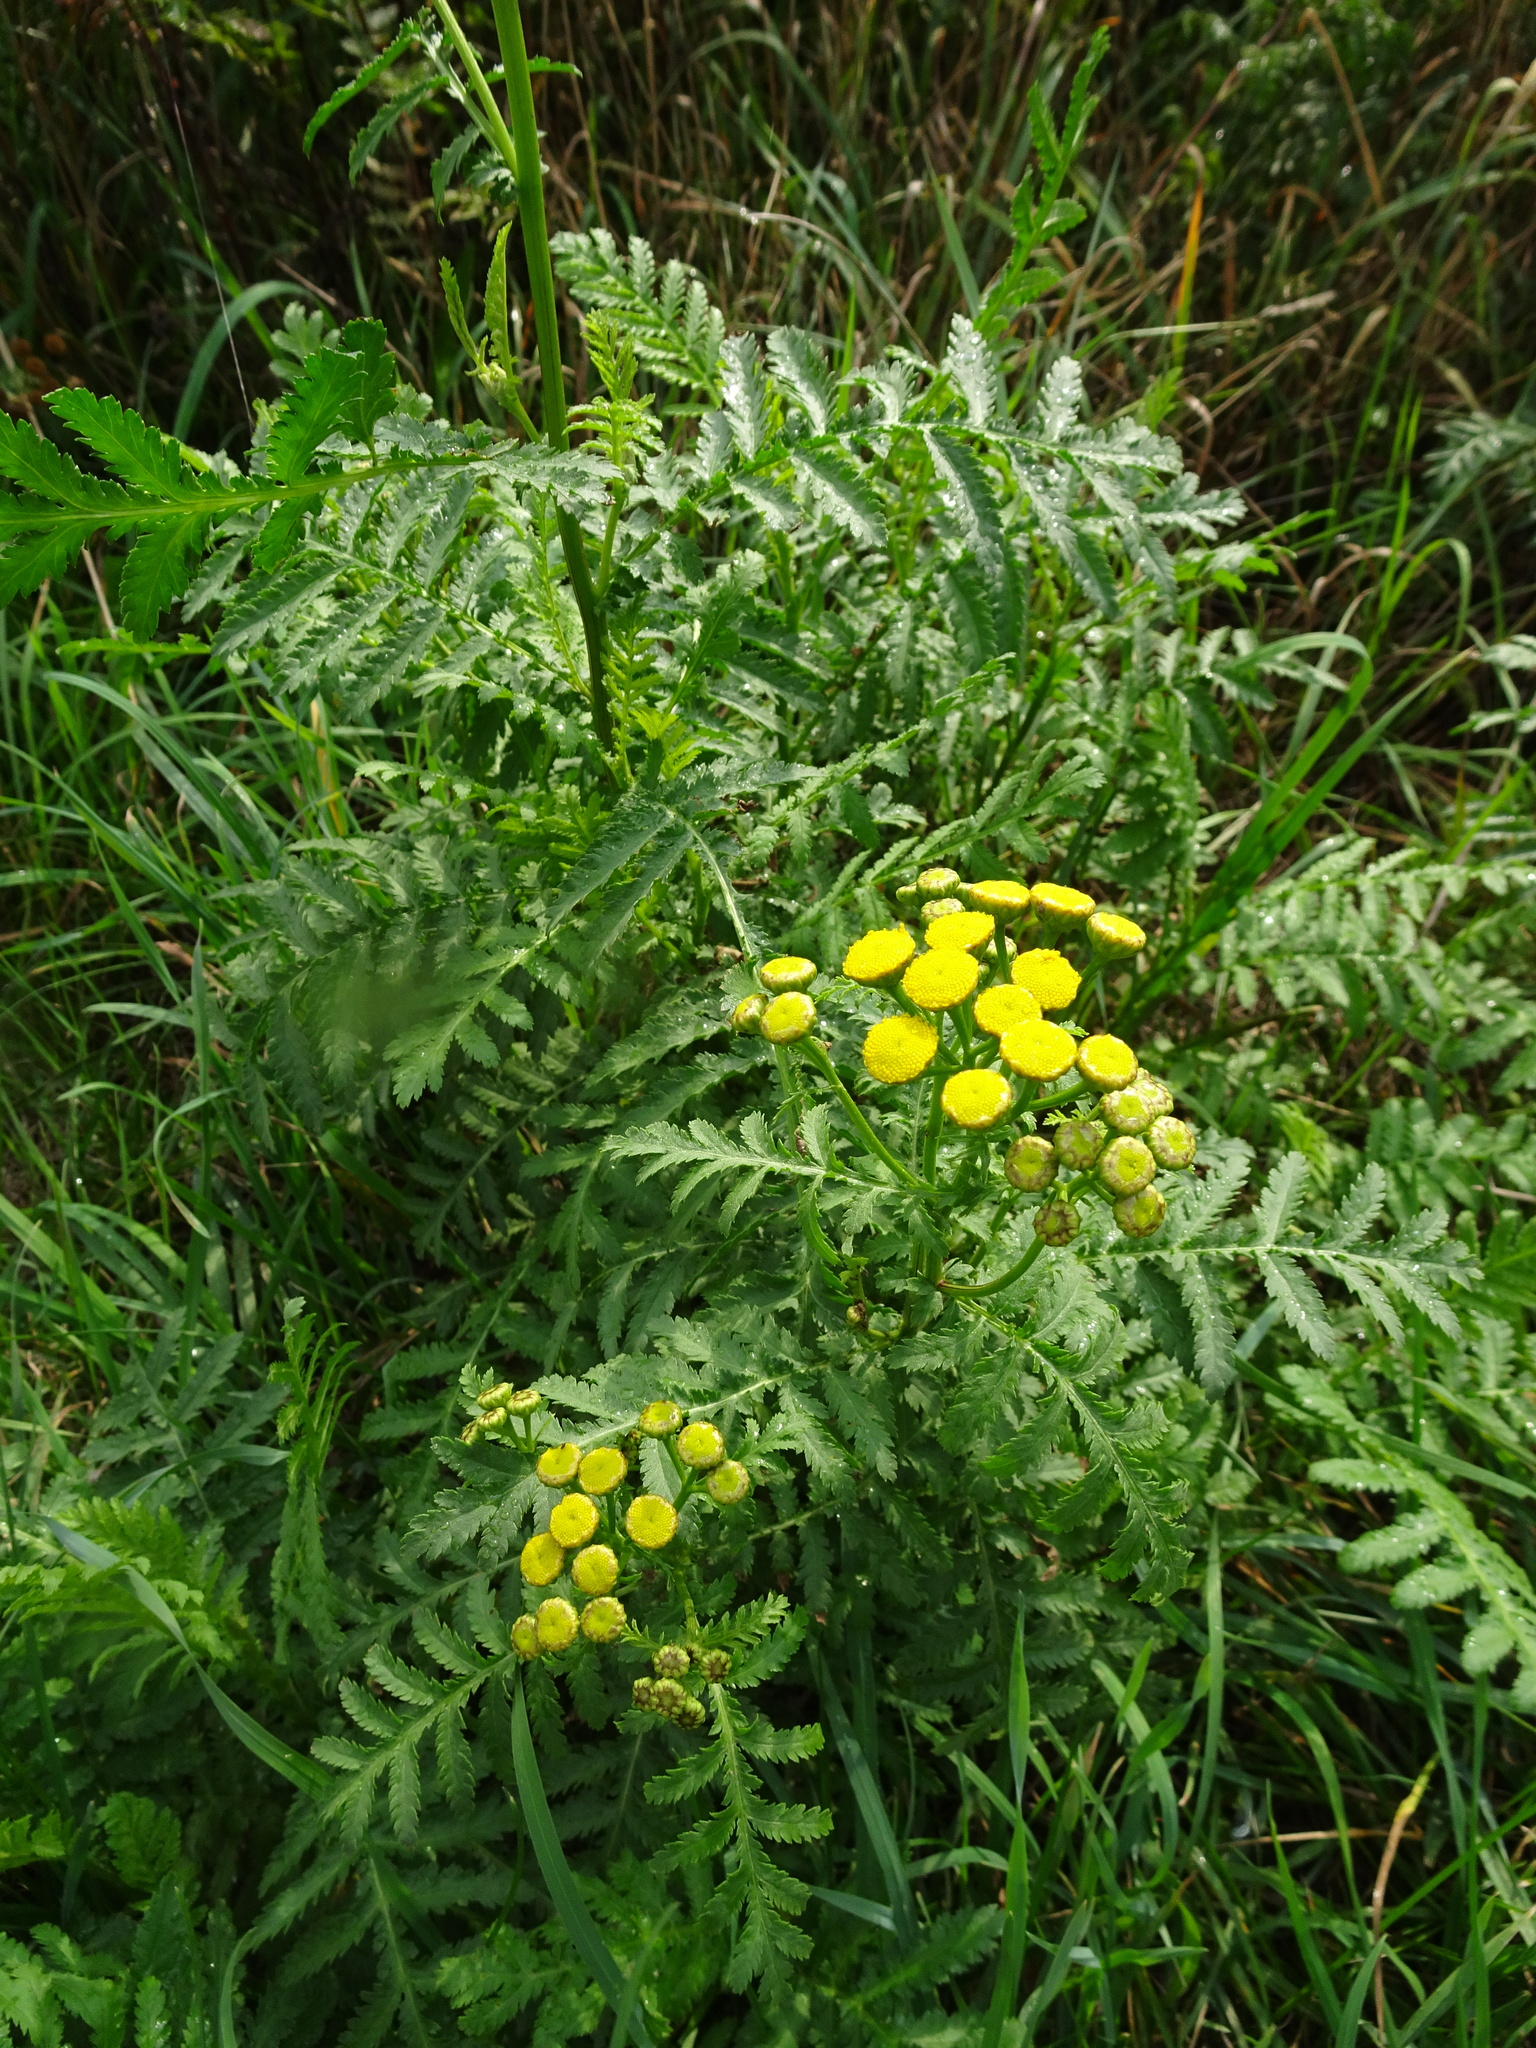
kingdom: Plantae
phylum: Tracheophyta
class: Magnoliopsida
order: Asterales
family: Asteraceae
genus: Tanacetum
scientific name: Tanacetum vulgare
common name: Common tansy
